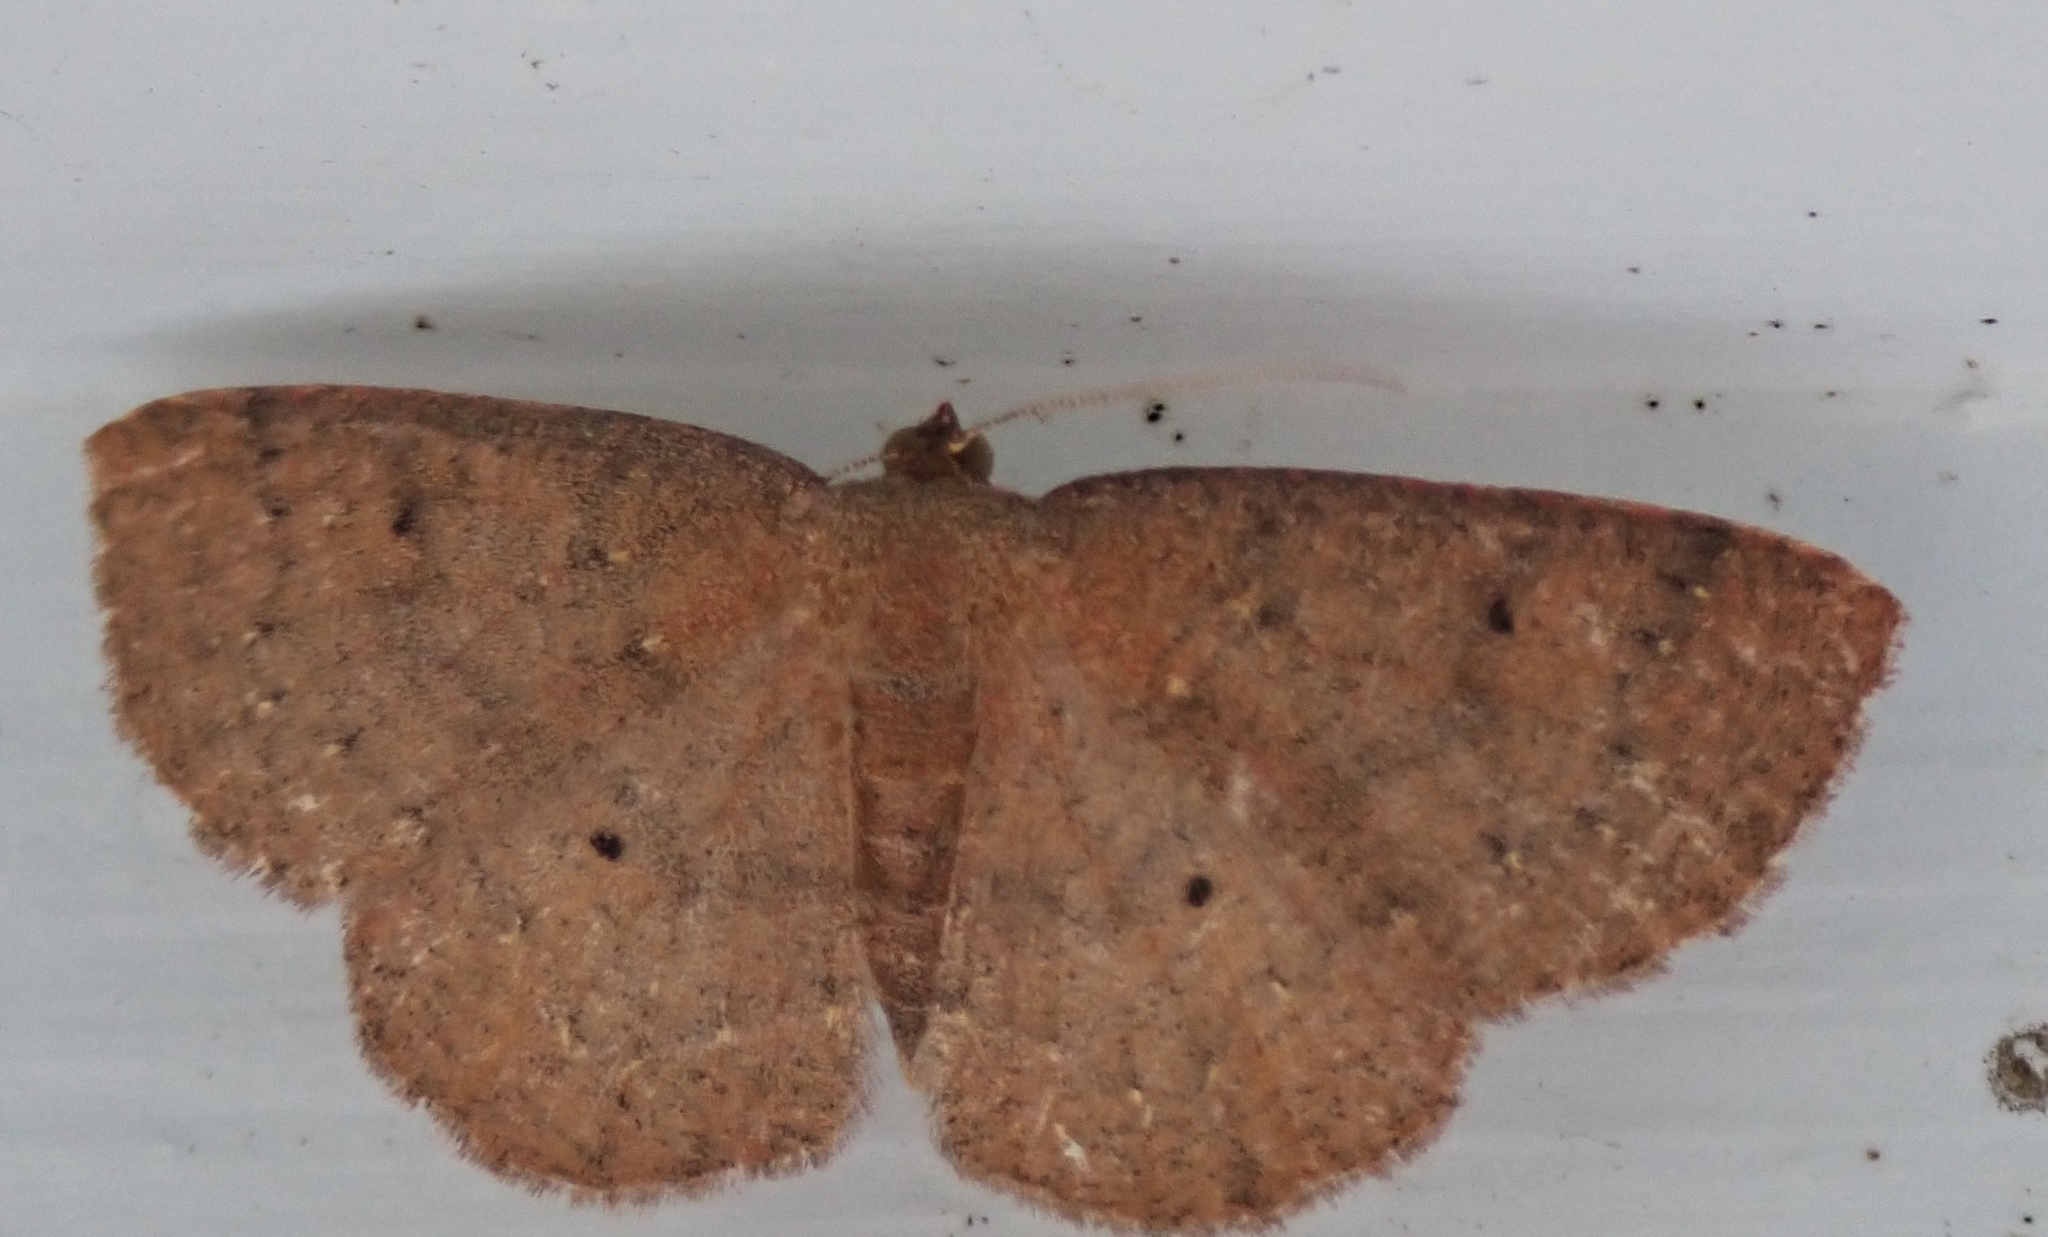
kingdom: Animalia
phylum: Arthropoda
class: Insecta
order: Lepidoptera
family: Geometridae
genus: Ilexia
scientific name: Ilexia intractata
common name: Black-dotted ruddy moth
